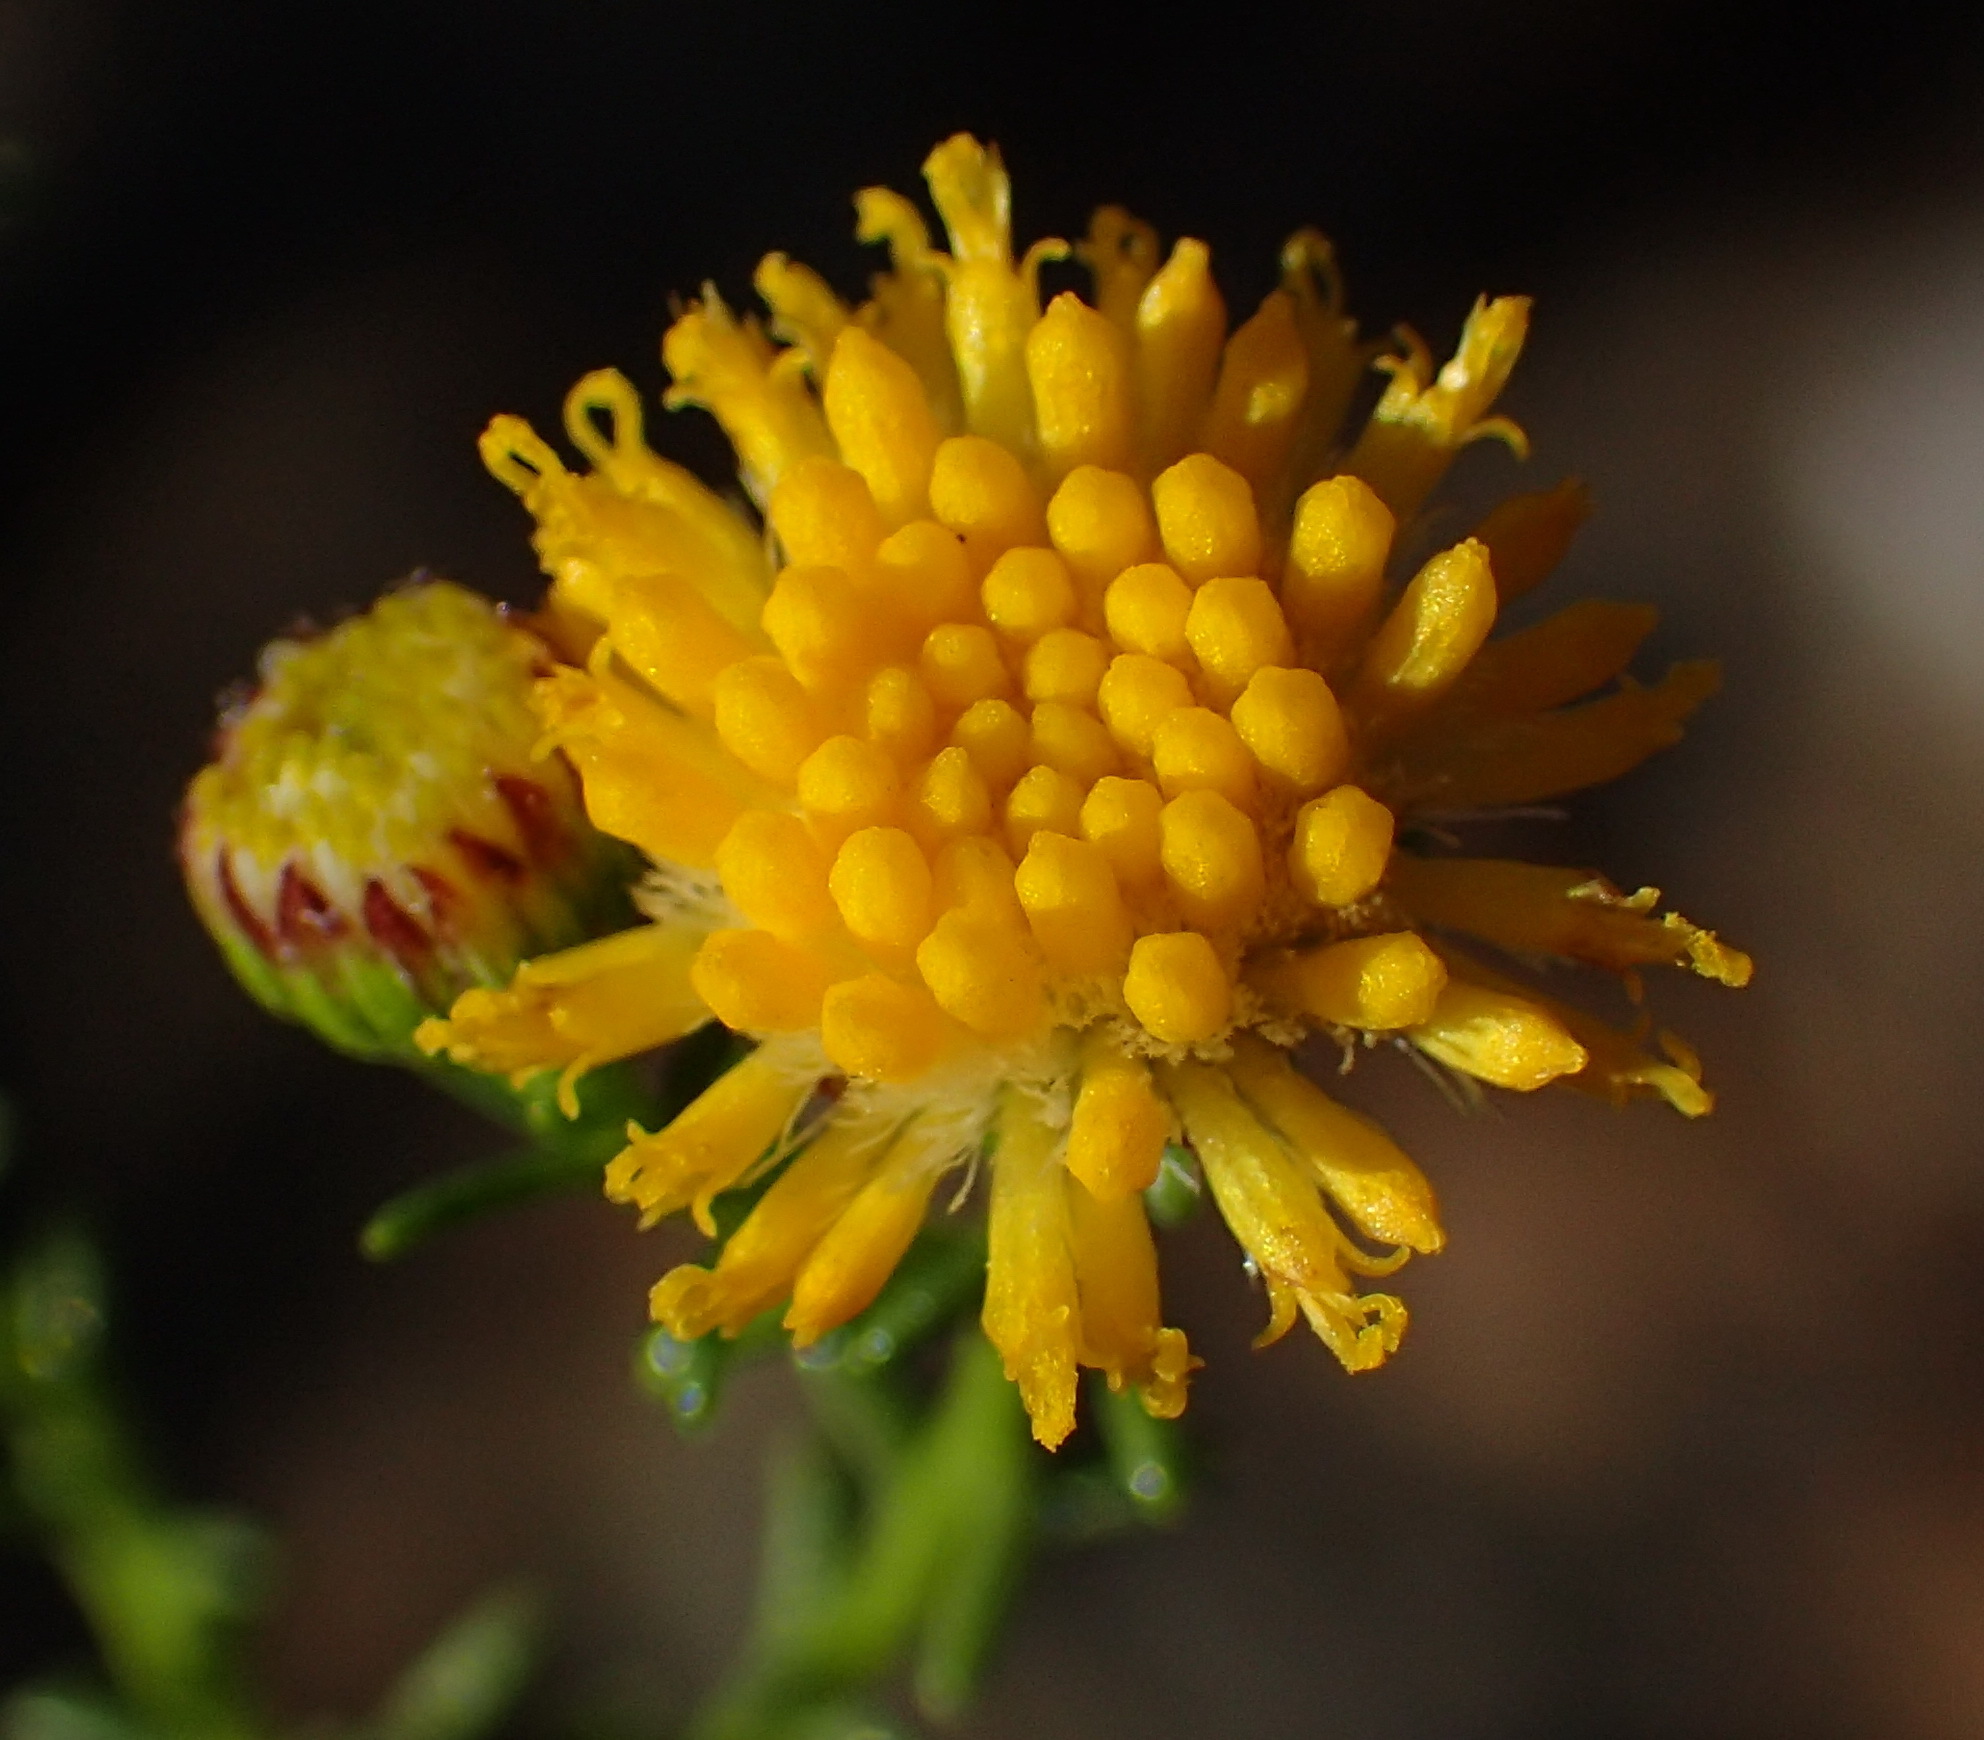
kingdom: Plantae
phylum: Tracheophyta
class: Magnoliopsida
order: Asterales
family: Asteraceae
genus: Chrysocoma
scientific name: Chrysocoma ciliata
